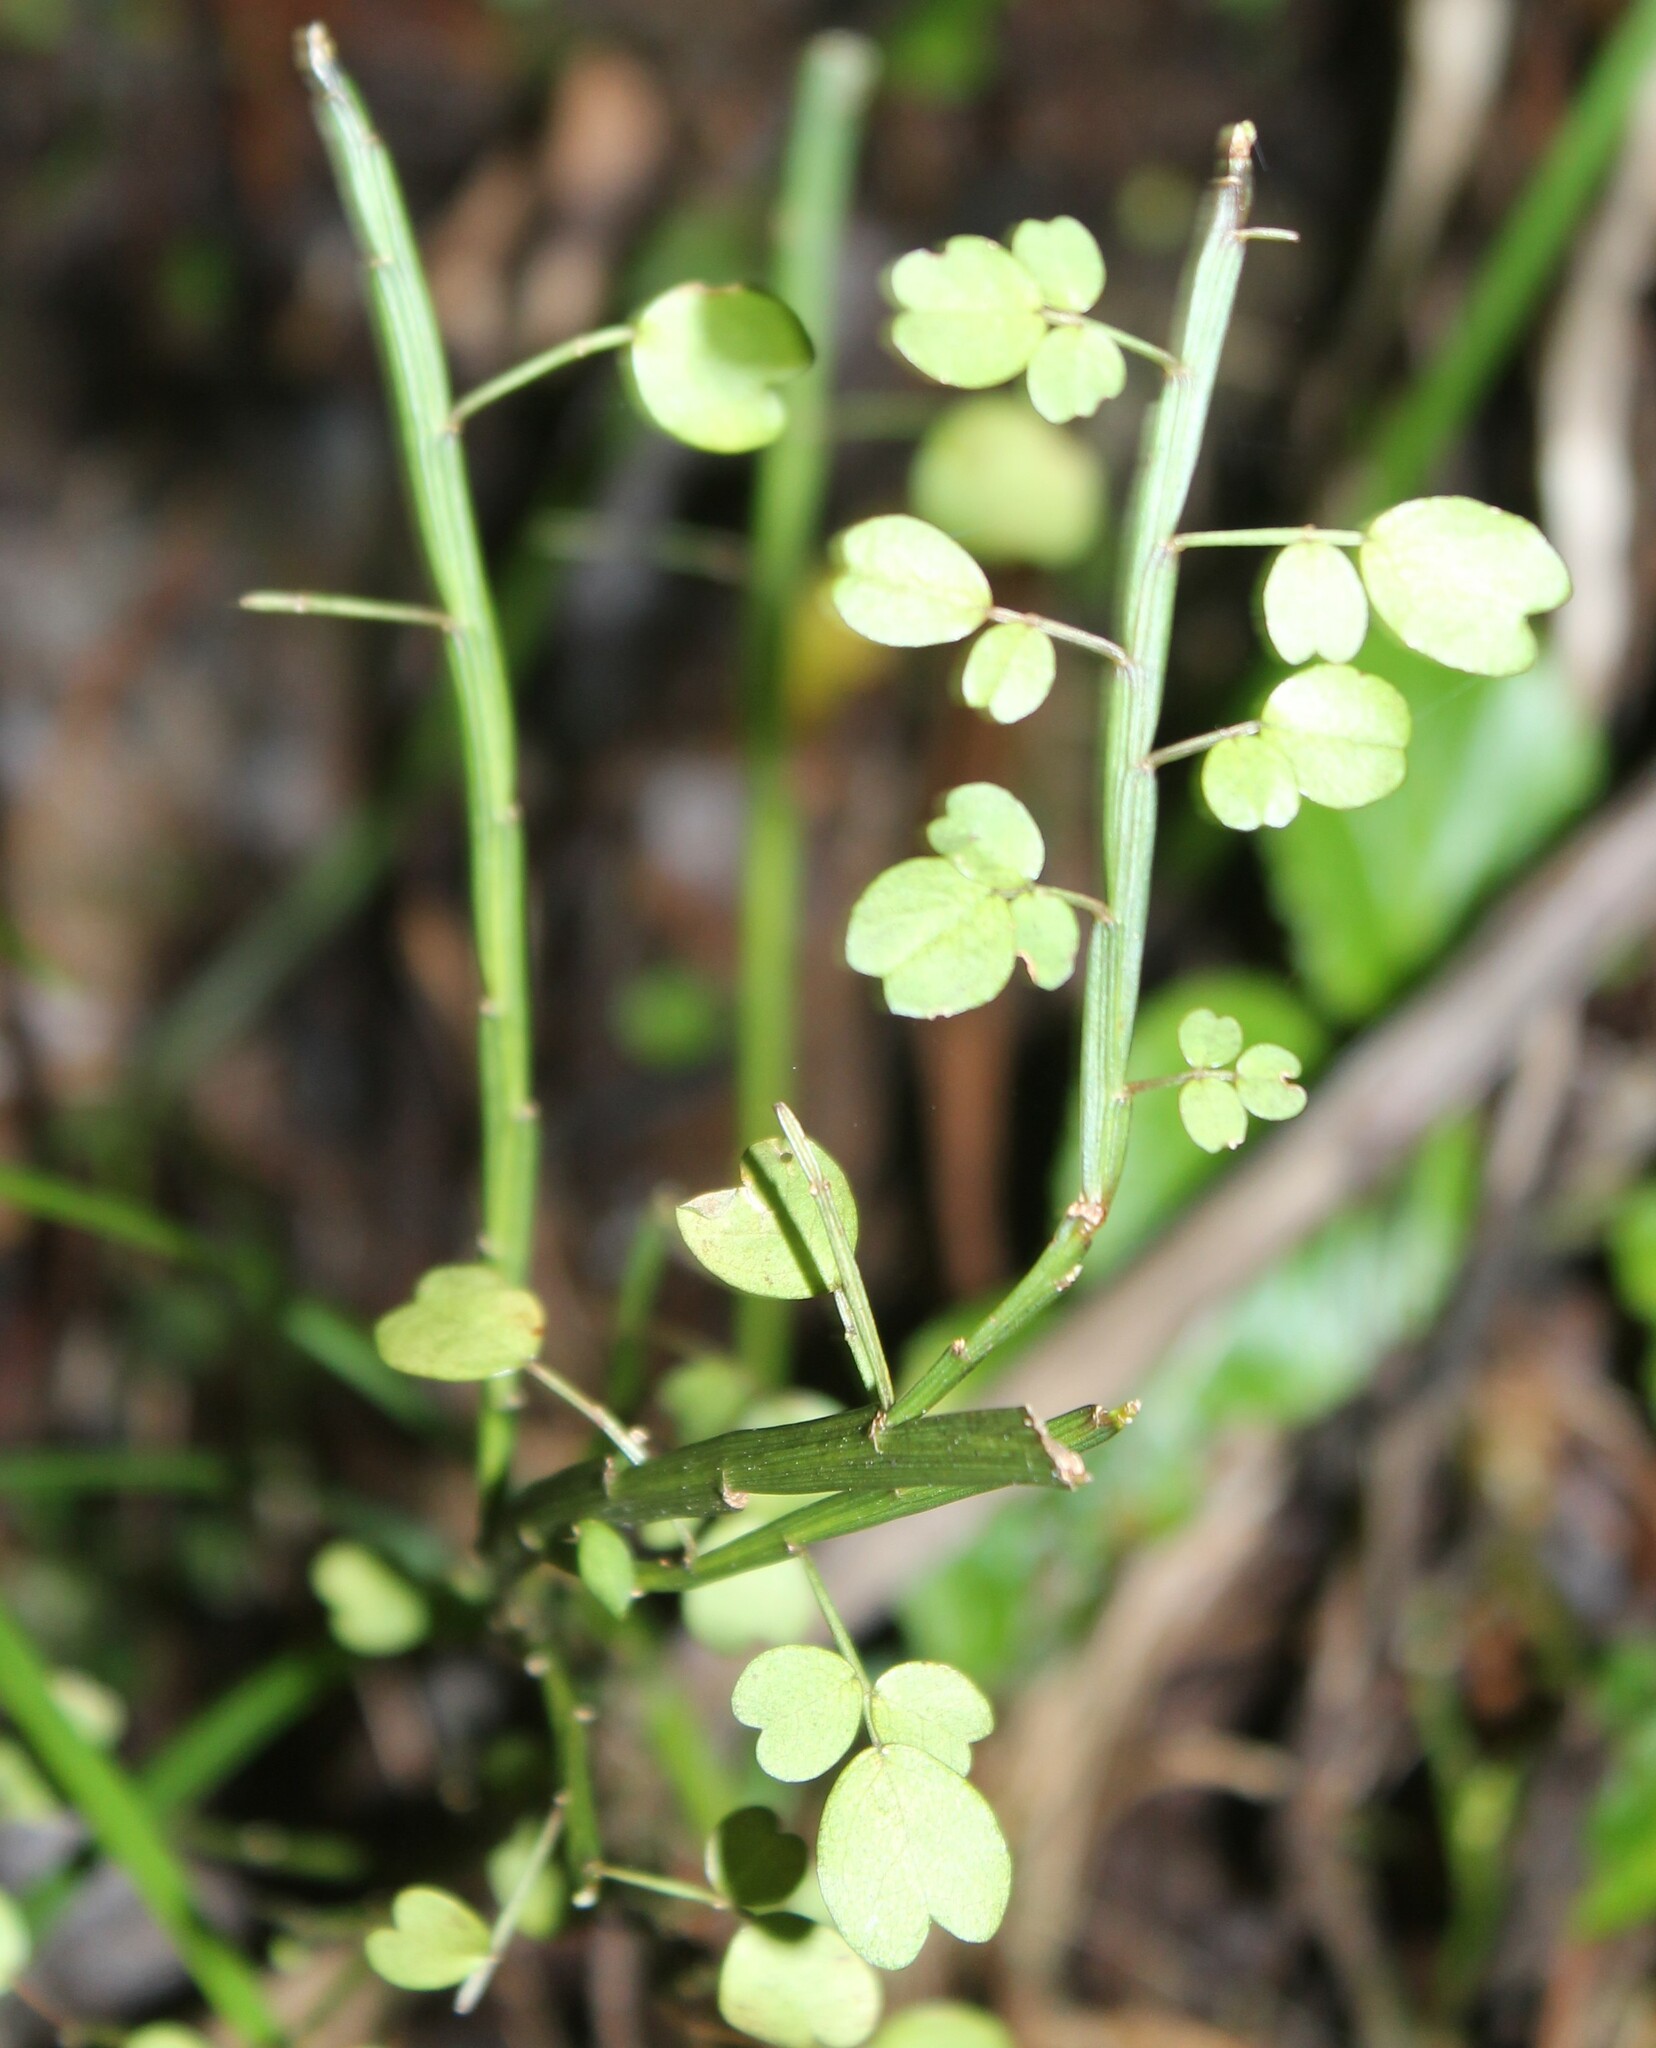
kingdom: Plantae
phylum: Tracheophyta
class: Magnoliopsida
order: Fabales
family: Fabaceae
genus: Carmichaelia
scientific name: Carmichaelia australis
